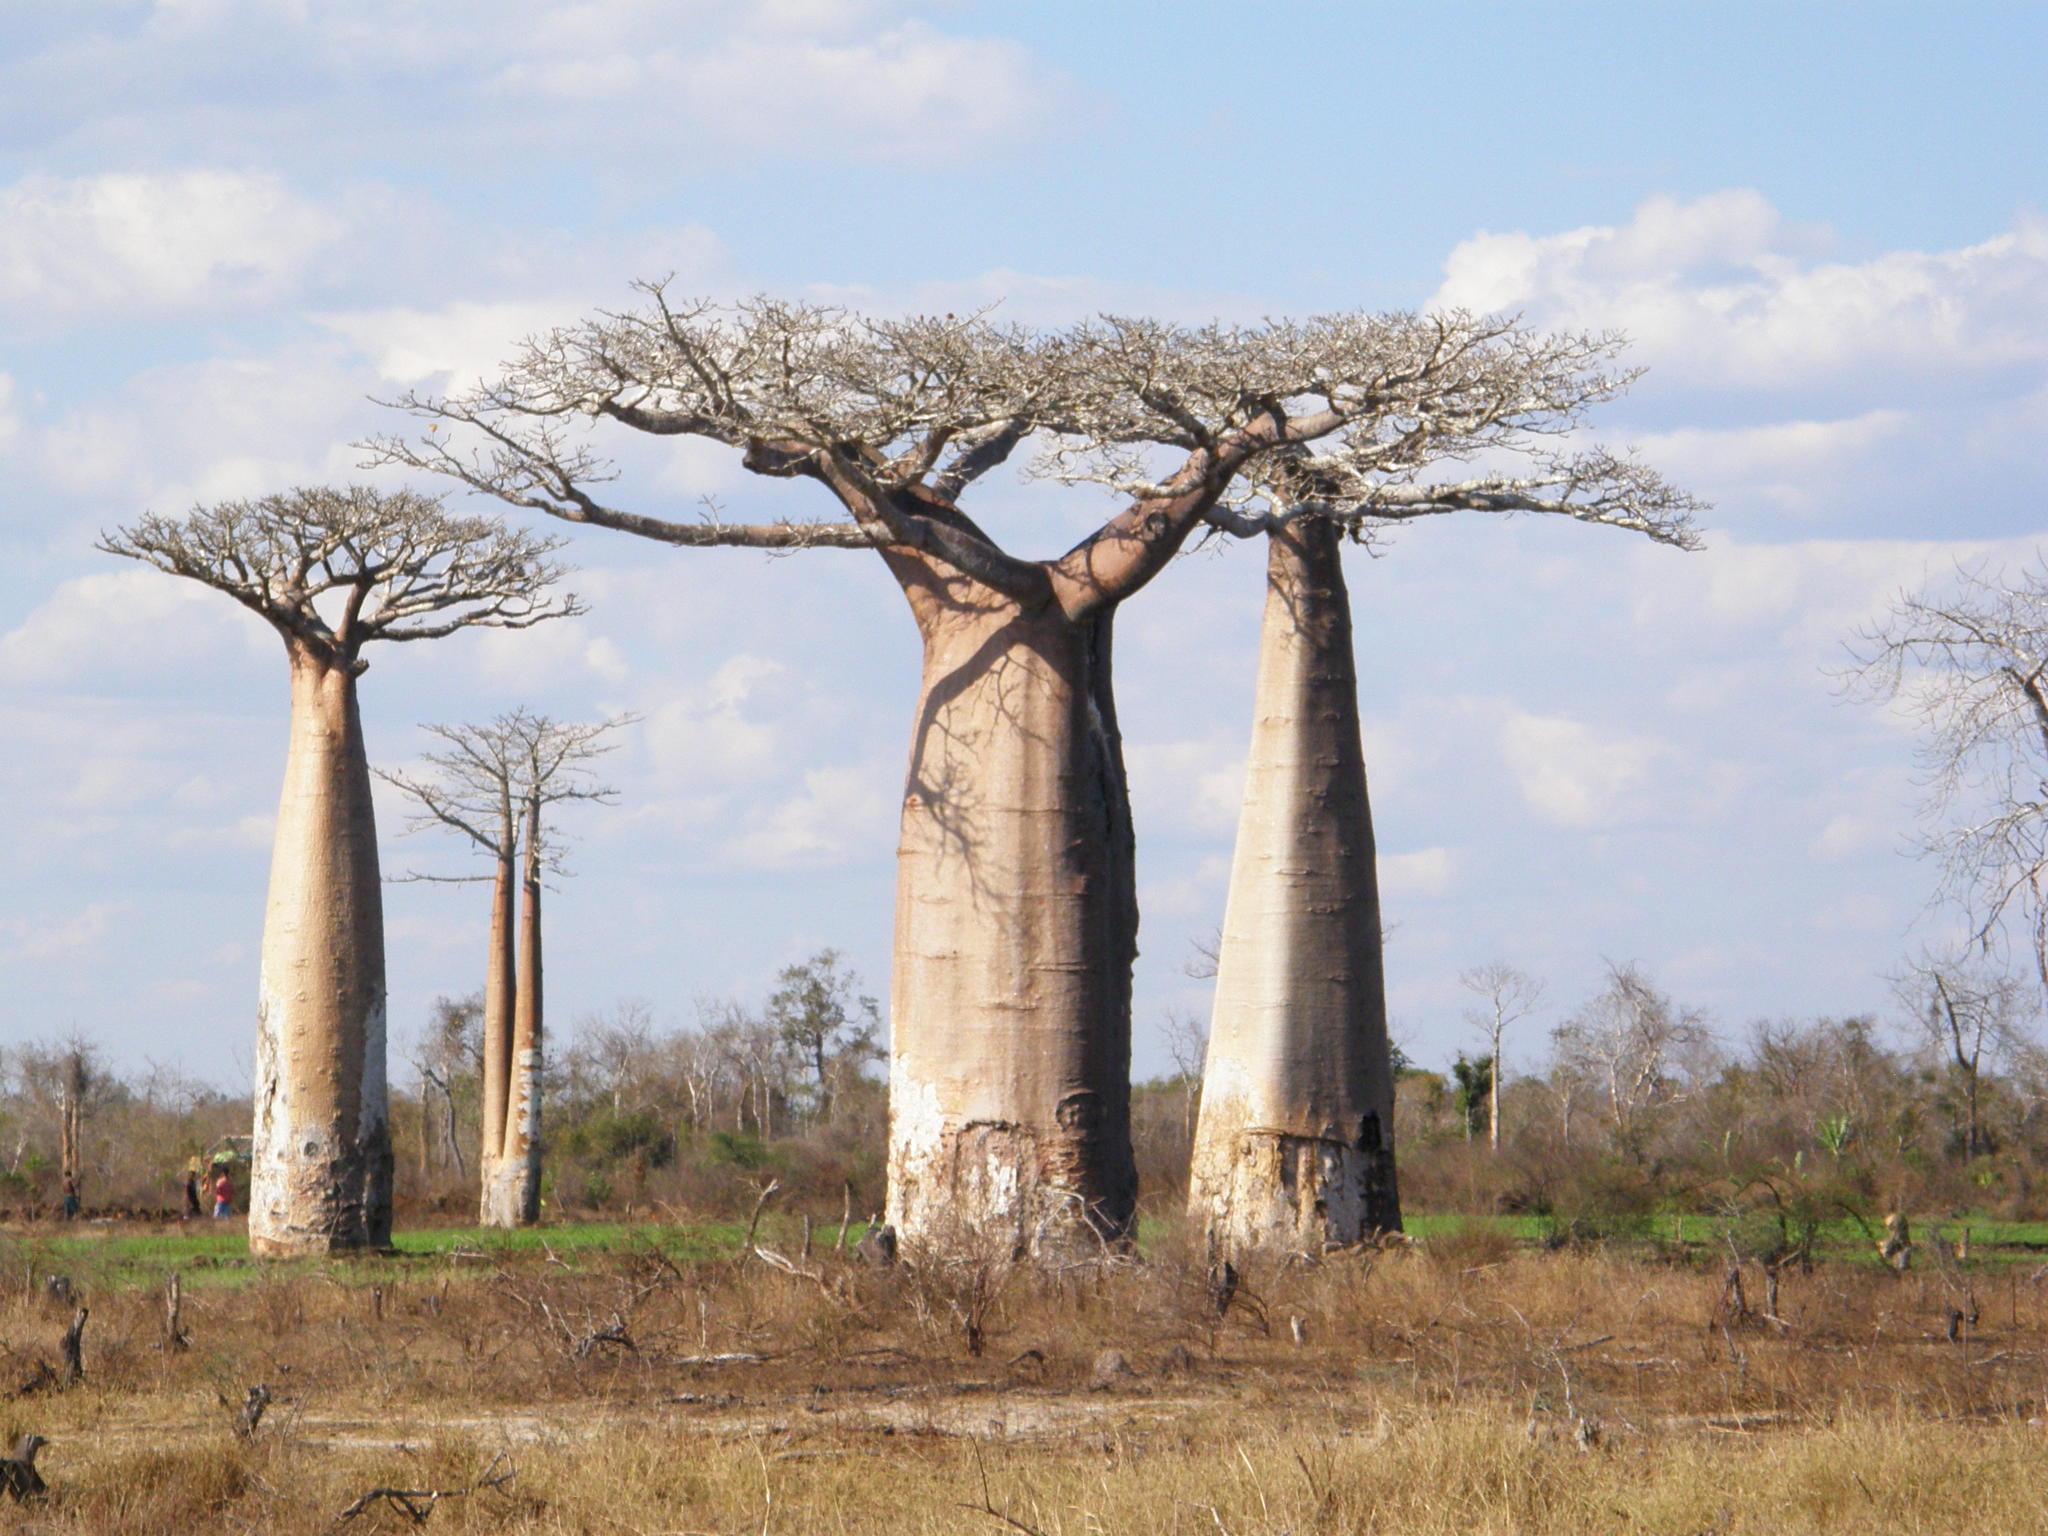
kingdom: Plantae
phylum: Tracheophyta
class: Magnoliopsida
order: Malvales
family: Malvaceae
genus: Adansonia
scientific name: Adansonia grandidieri
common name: Grandidier's baobab
